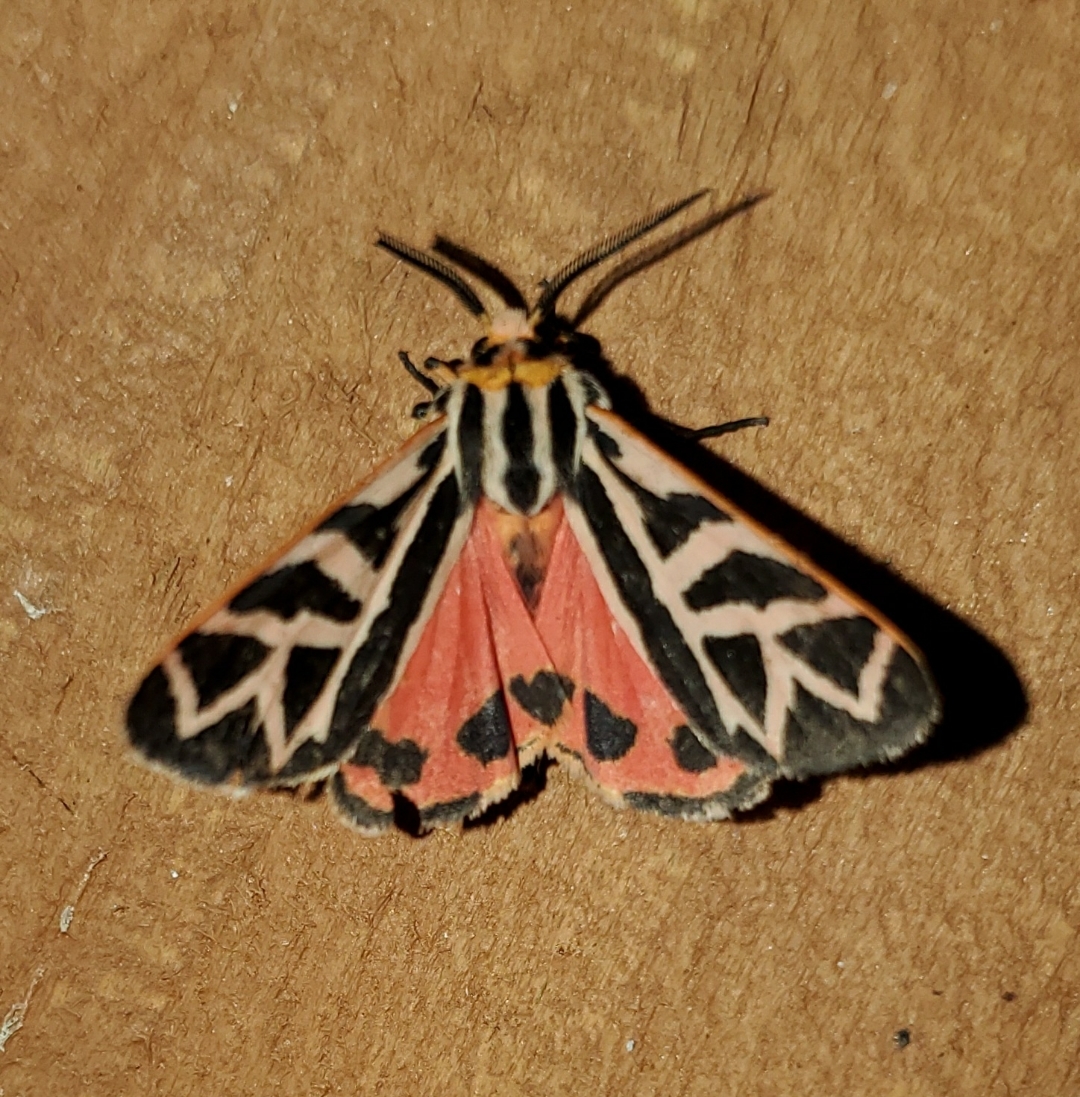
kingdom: Animalia
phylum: Arthropoda
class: Insecta
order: Lepidoptera
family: Erebidae
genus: Apantesis
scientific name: Apantesis
